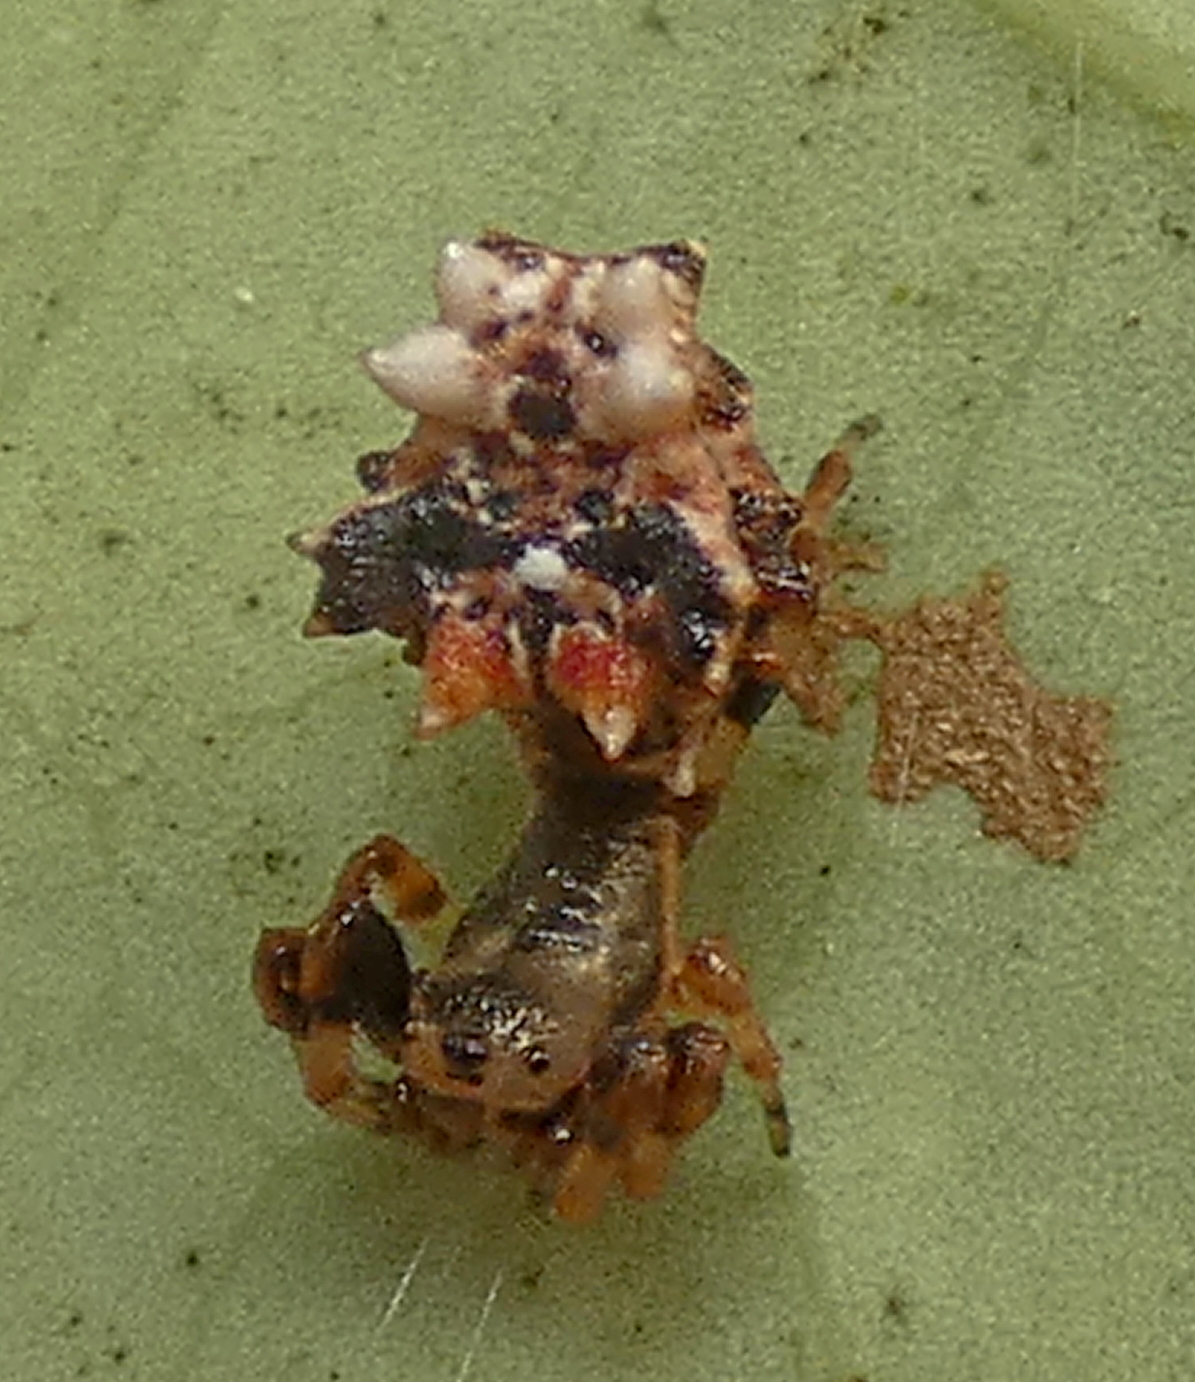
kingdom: Animalia
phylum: Arthropoda
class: Arachnida
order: Araneae
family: Araneidae
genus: Micrathena
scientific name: Micrathena horrida
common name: Orb weavers
